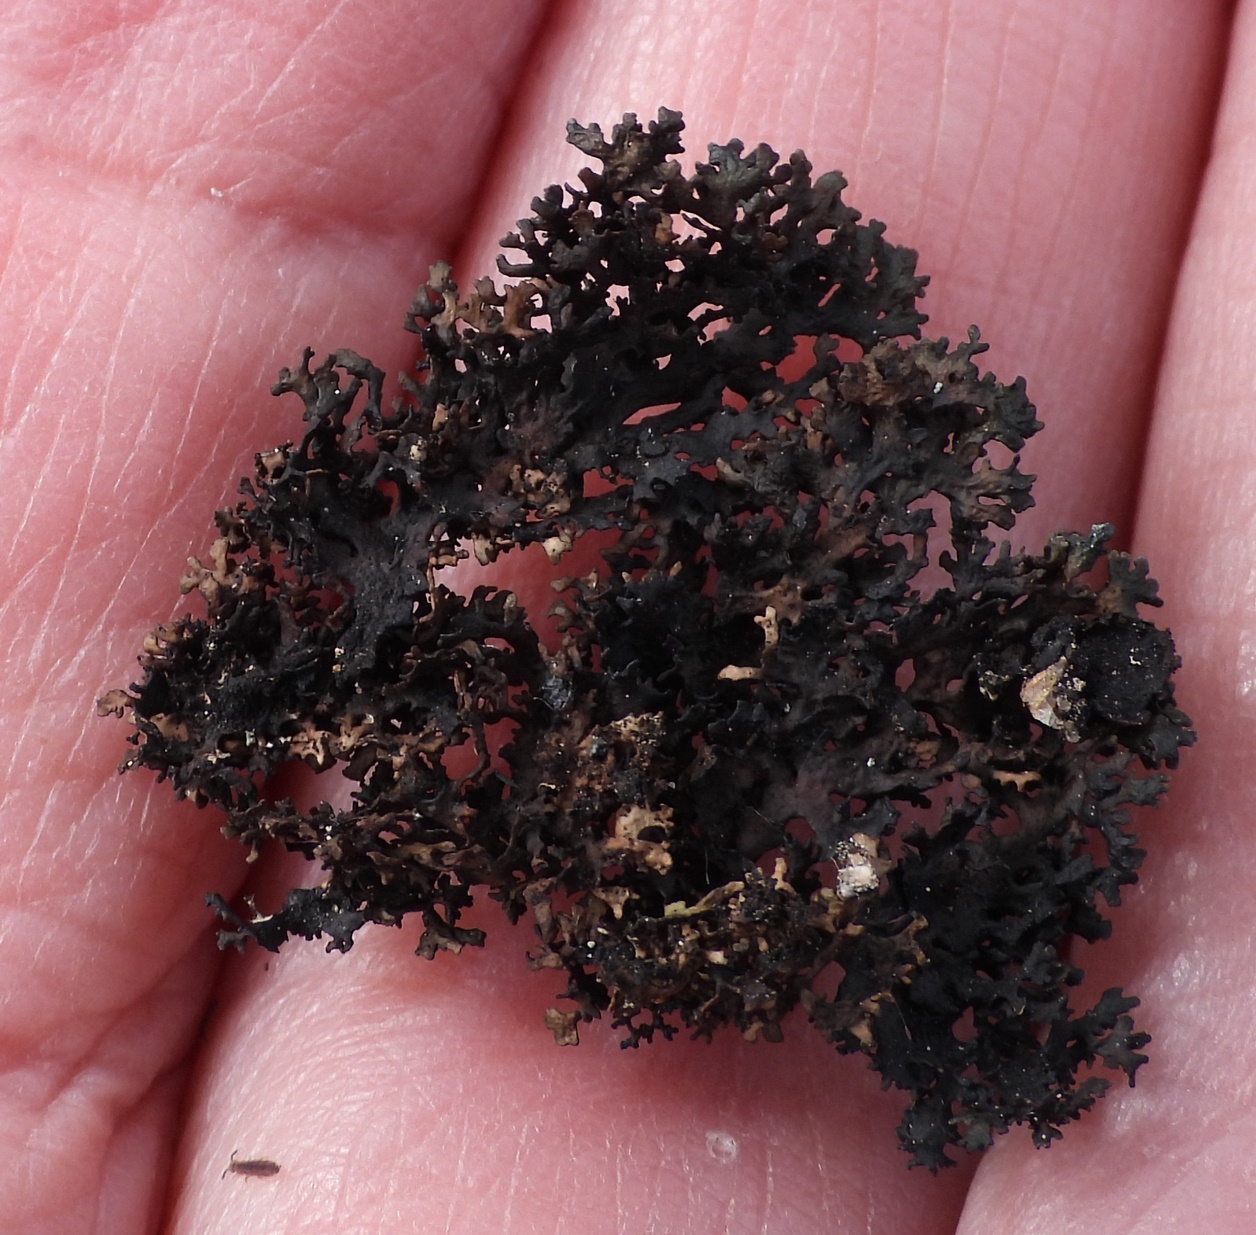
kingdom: Fungi
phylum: Ascomycota
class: Lecanoromycetes
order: Lecanorales
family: Parmeliaceae
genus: Melanelia
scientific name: Melanelia hepatizon
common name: Rimmed camouflage lichen
